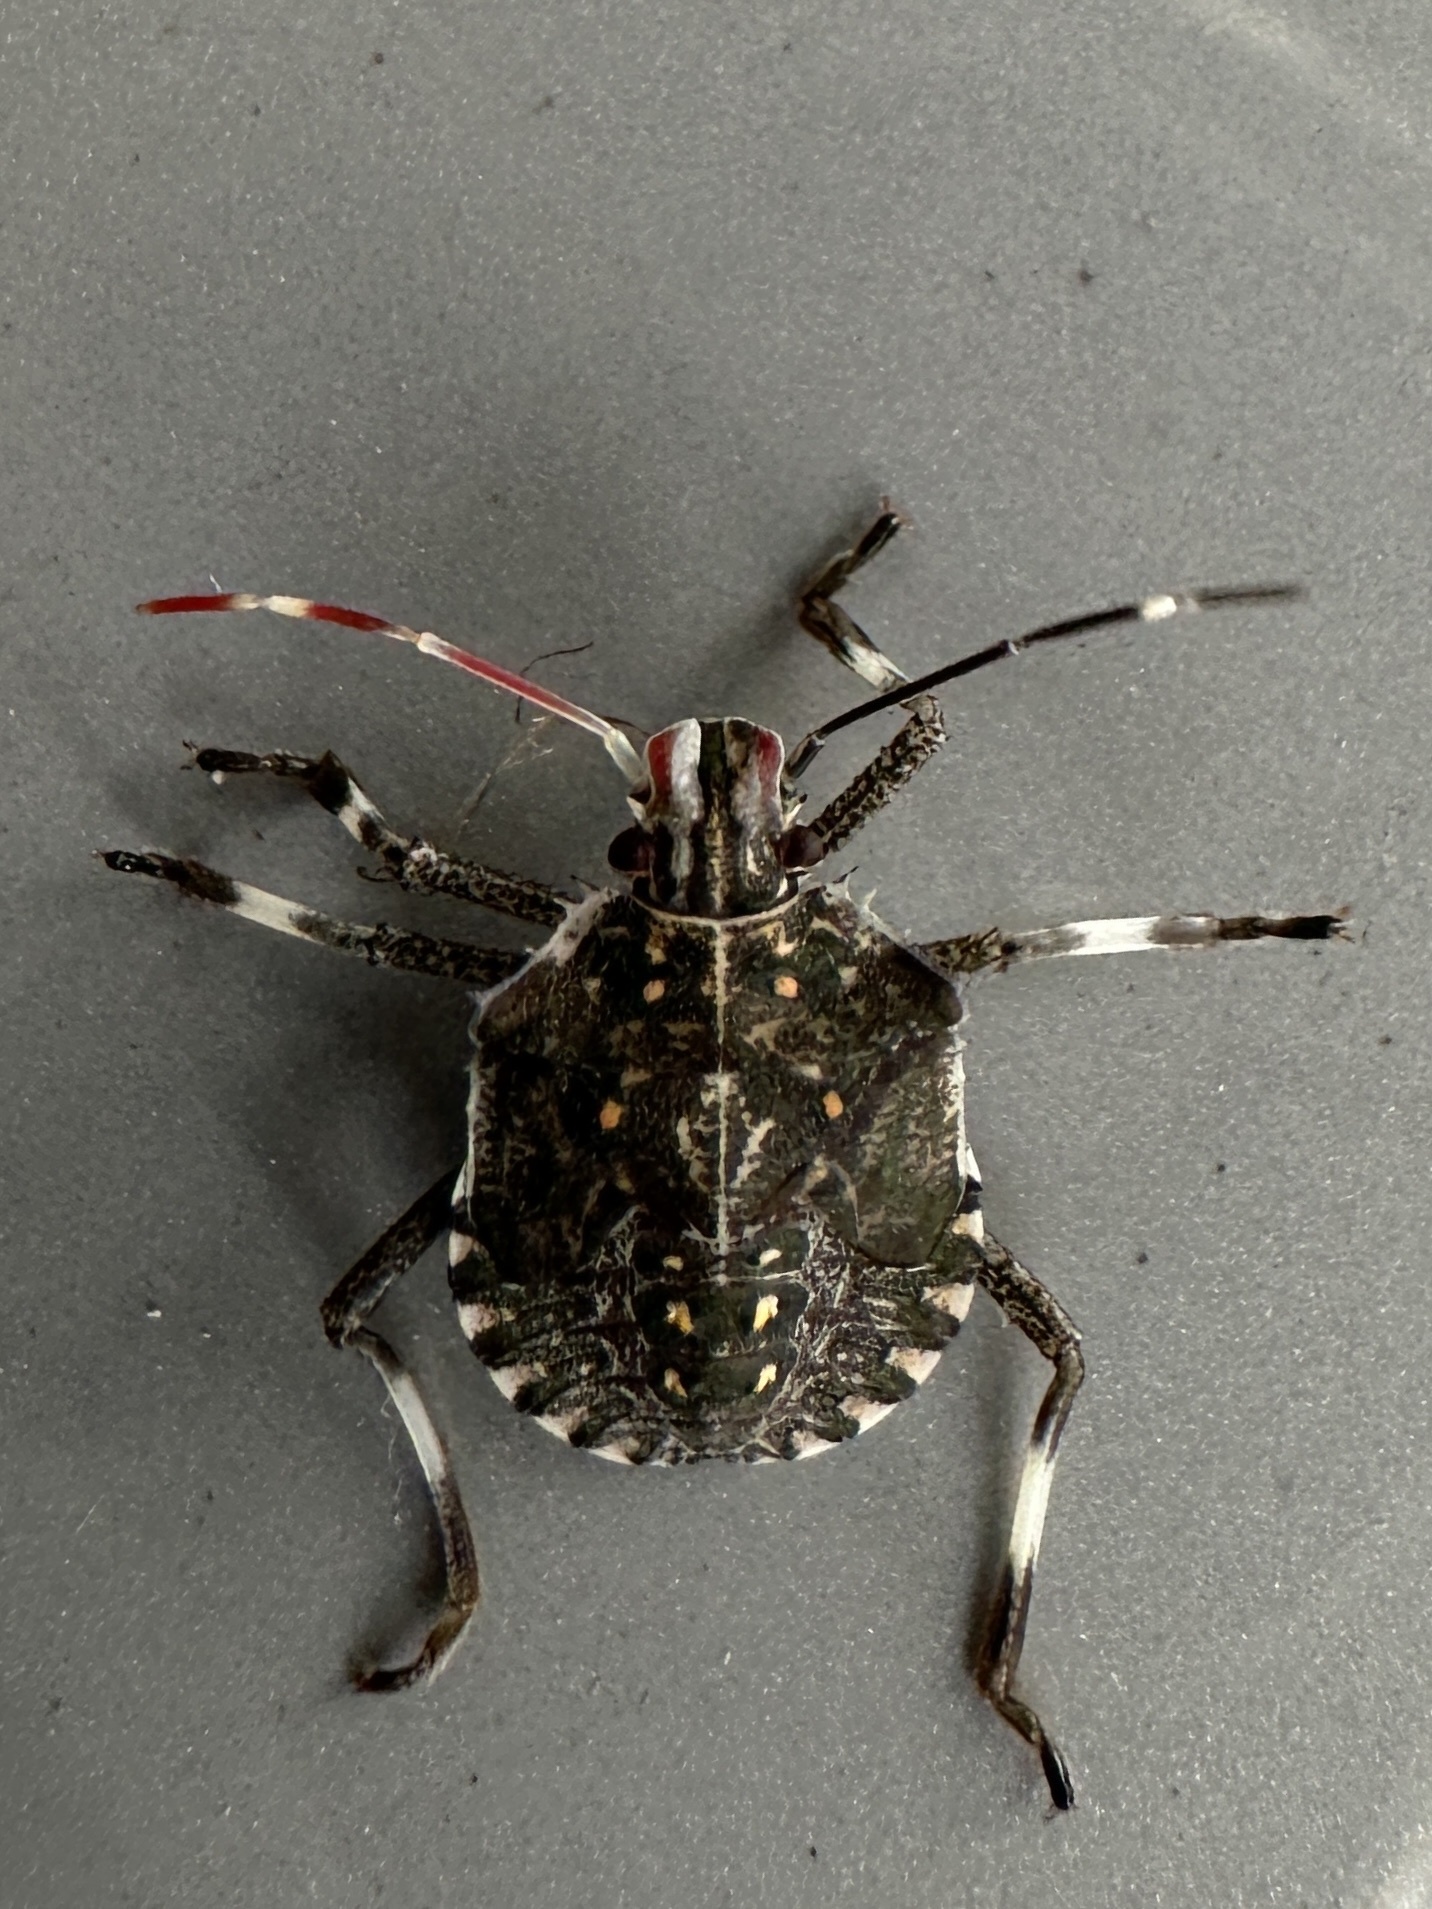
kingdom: Animalia
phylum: Arthropoda
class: Insecta
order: Hemiptera
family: Pentatomidae
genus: Halyomorpha
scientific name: Halyomorpha halys
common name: Brown marmorated stink bug
